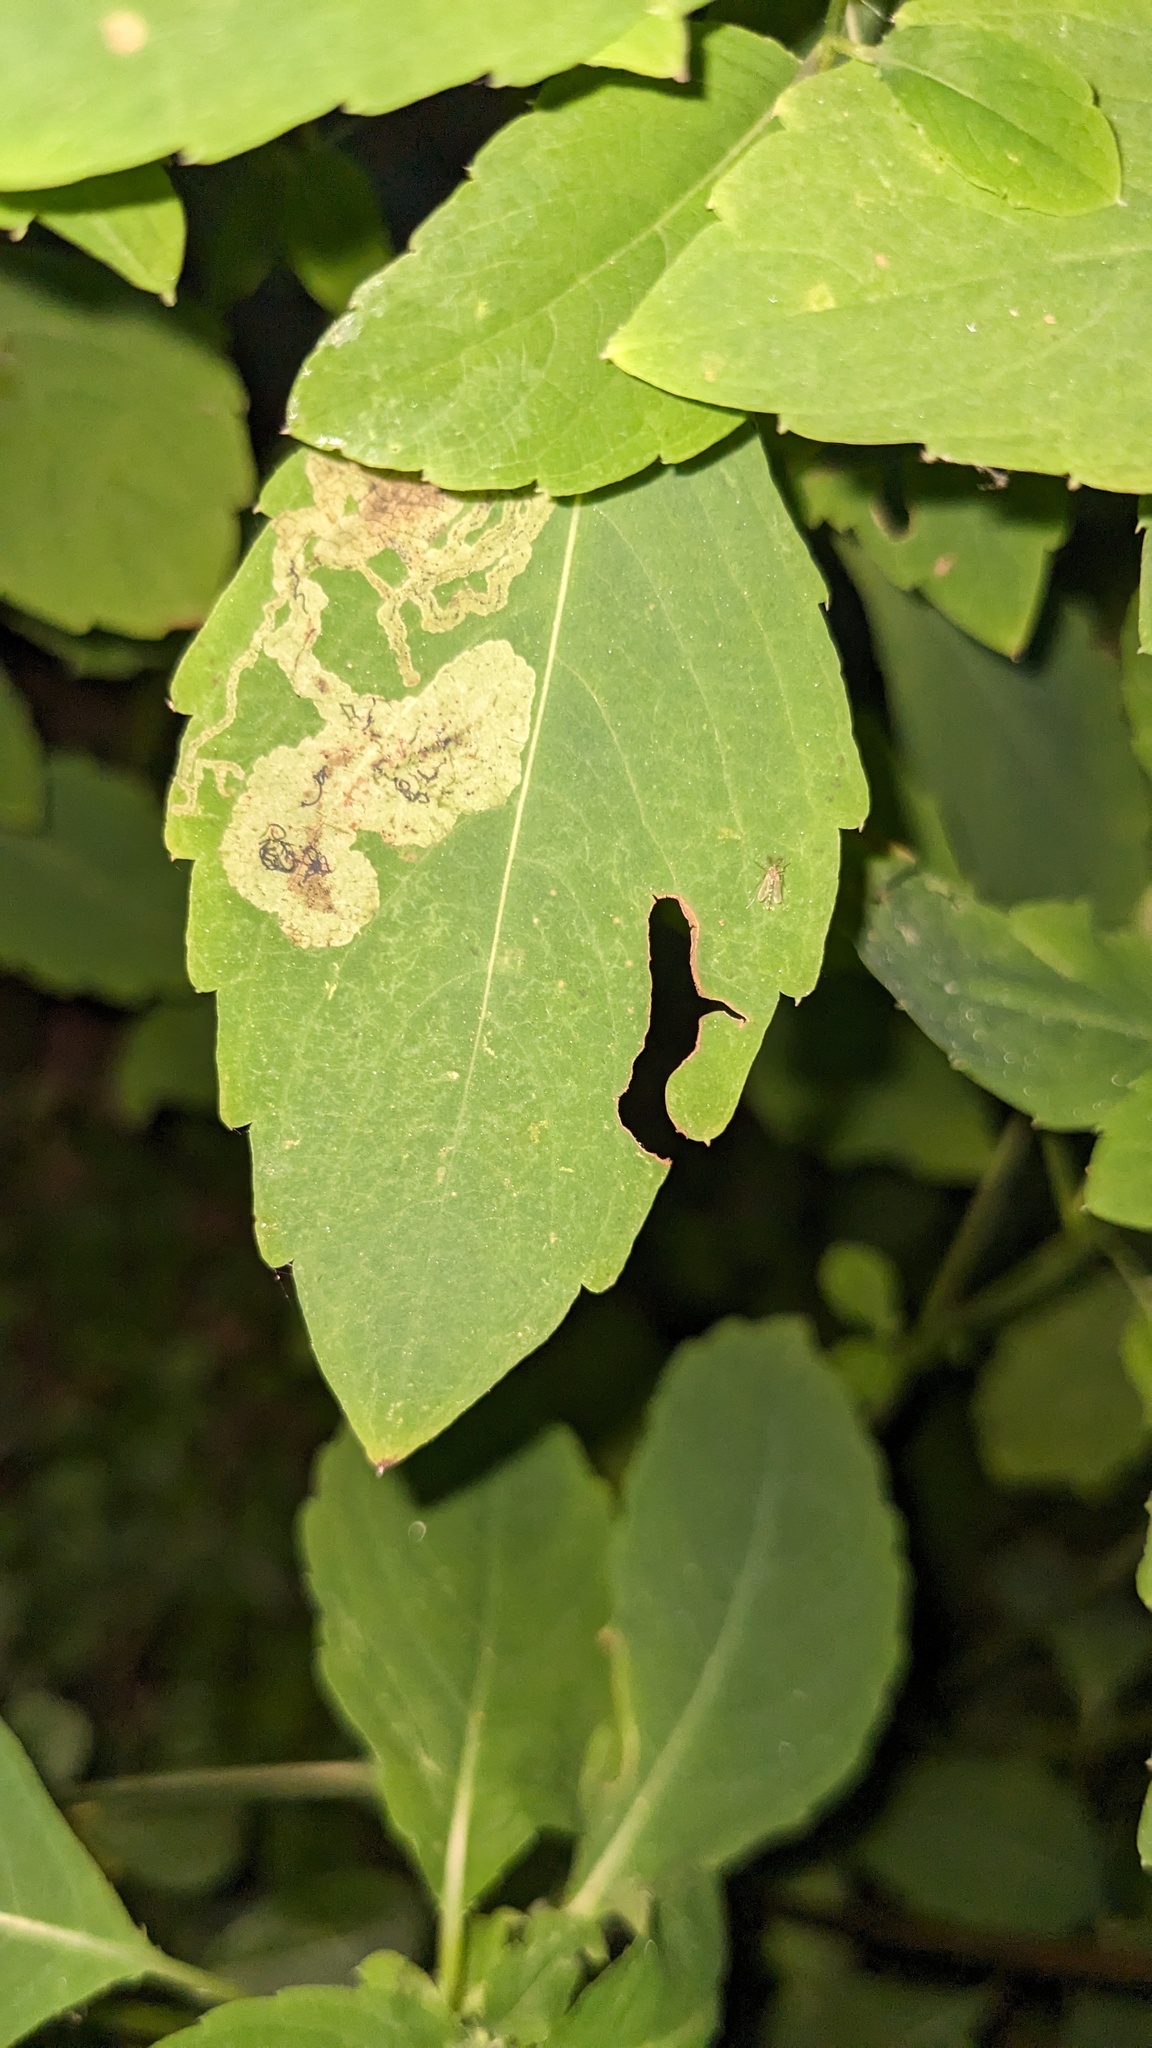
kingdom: Animalia
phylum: Arthropoda
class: Insecta
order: Diptera
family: Agromyzidae
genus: Phytoliriomyza
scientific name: Phytoliriomyza melampyga
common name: Jewelweed leaf-miner fly
